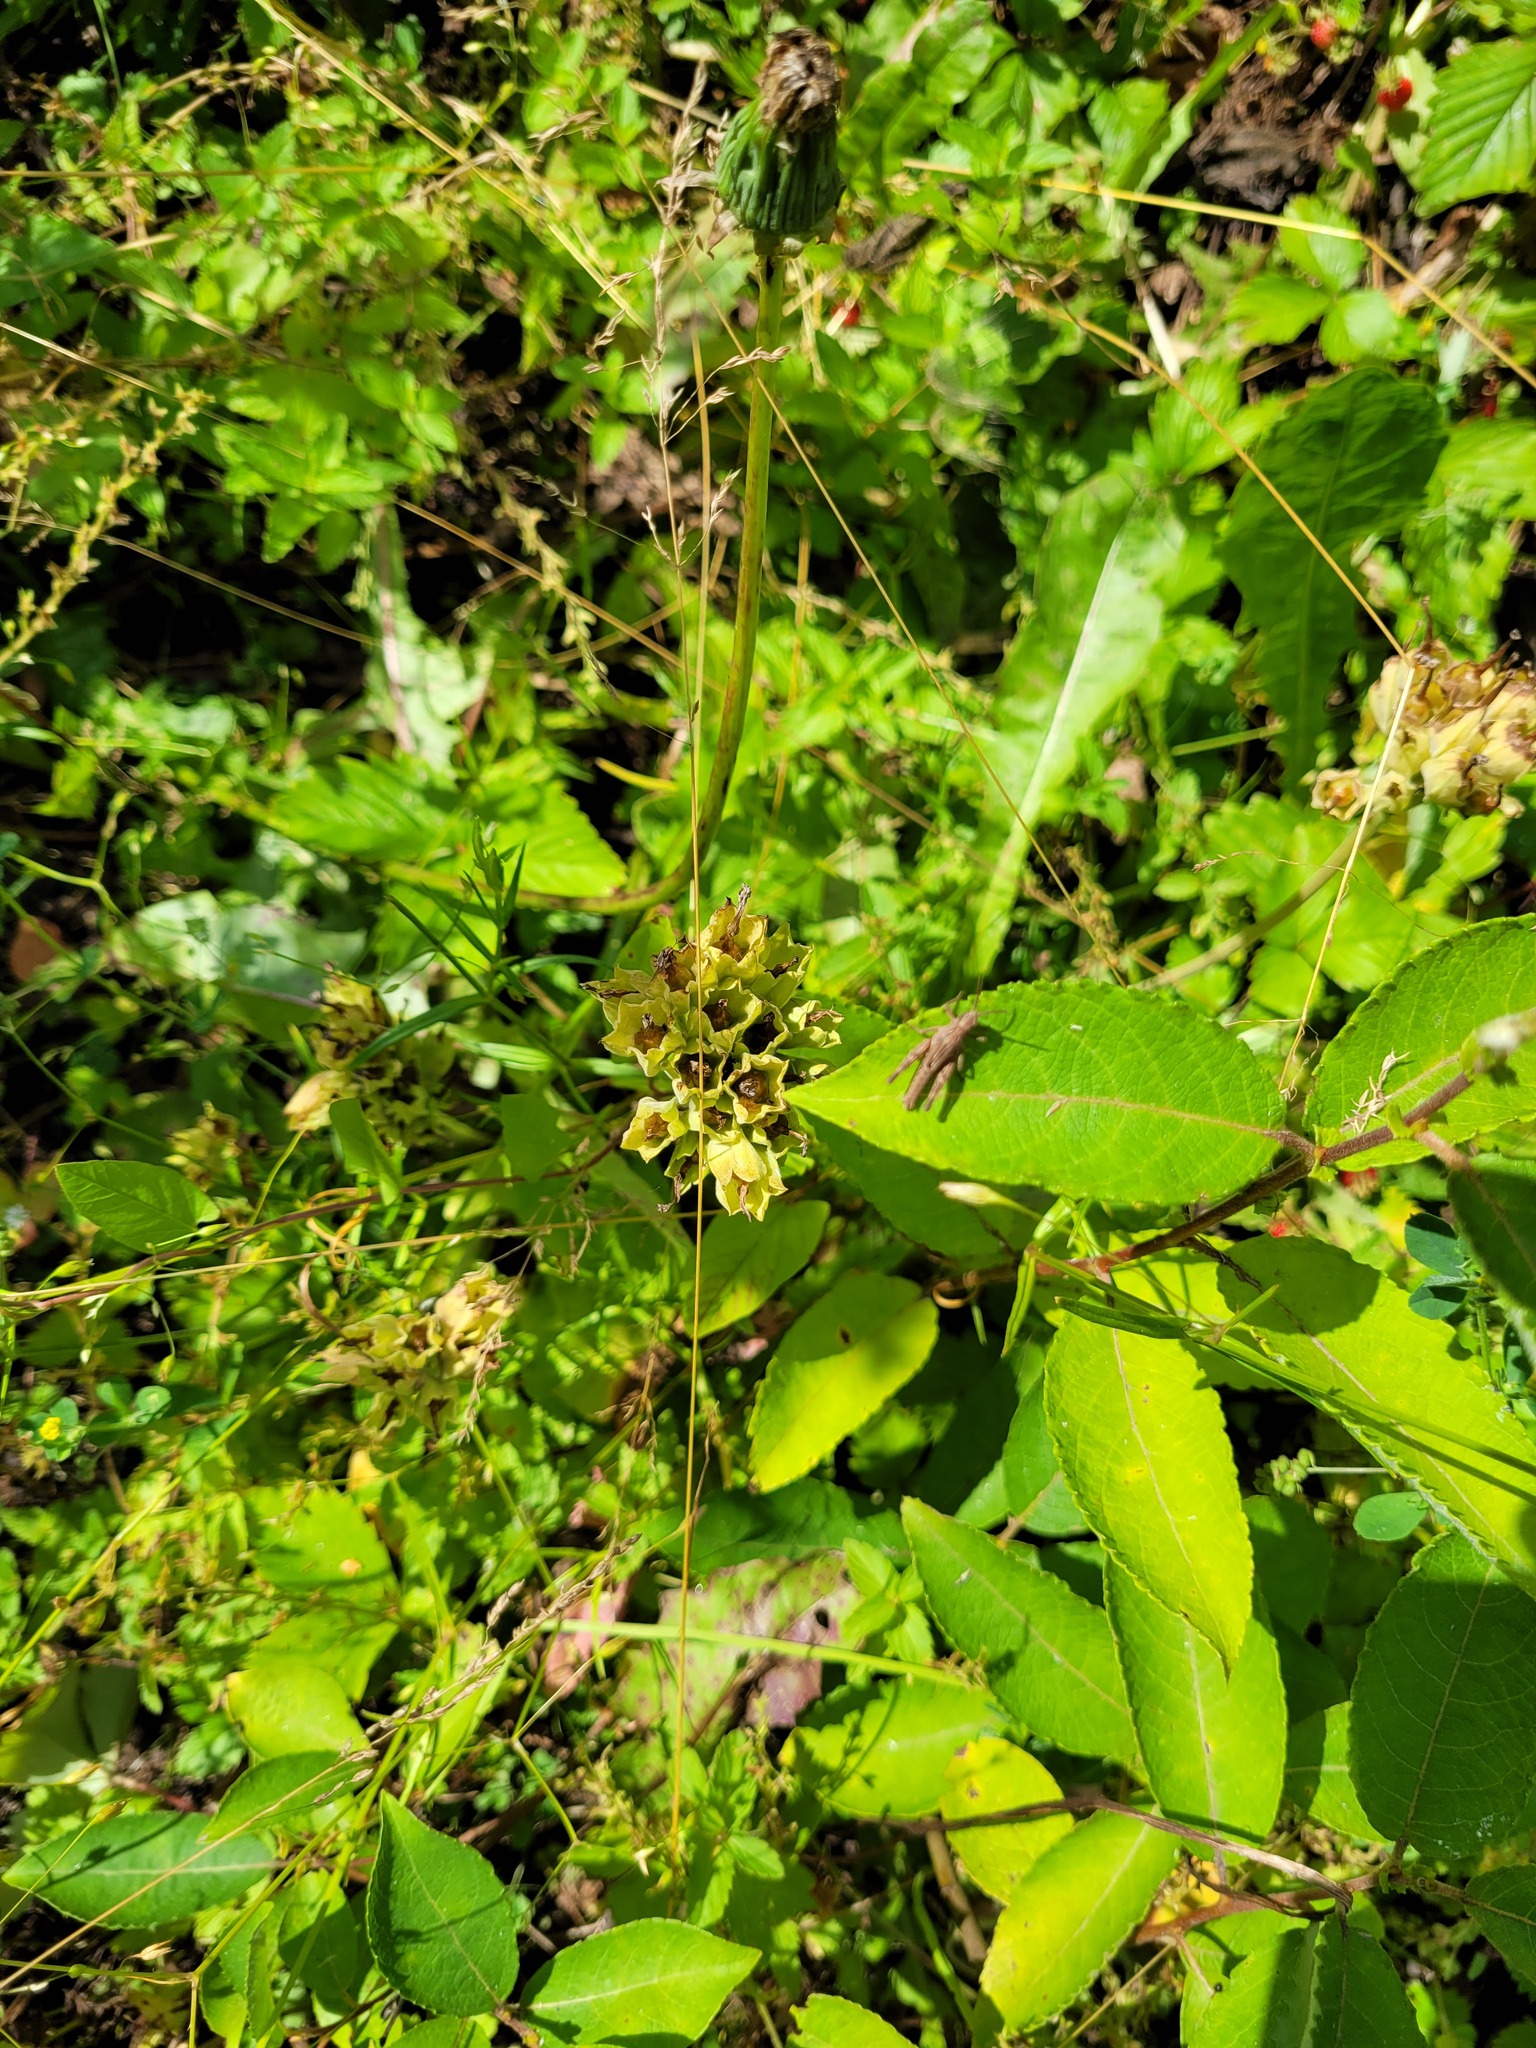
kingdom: Plantae
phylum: Tracheophyta
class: Magnoliopsida
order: Ericales
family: Primulaceae
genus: Primula
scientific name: Primula veris
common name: Cowslip
